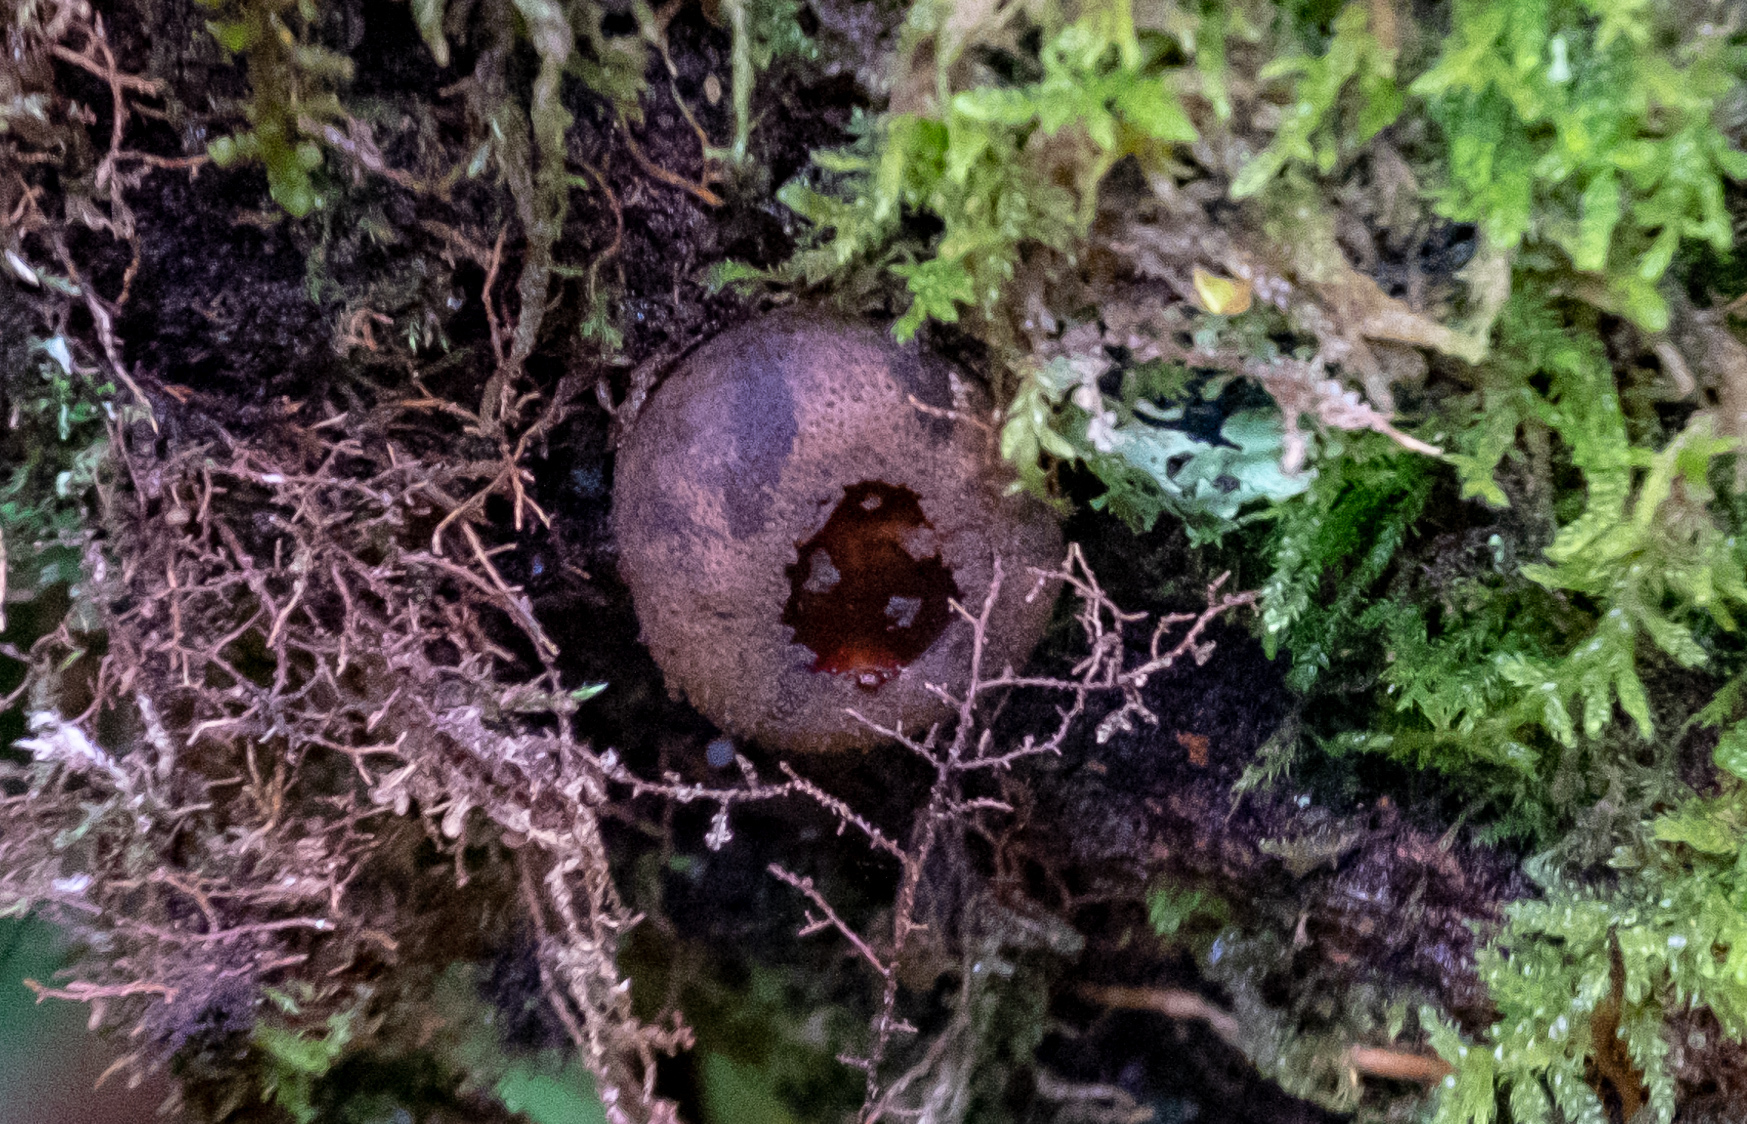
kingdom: Fungi
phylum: Ascomycota
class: Leotiomycetes
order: Phacidiales
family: Phacidiaceae
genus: Bulgaria
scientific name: Bulgaria inquinans
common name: Black bulgar
